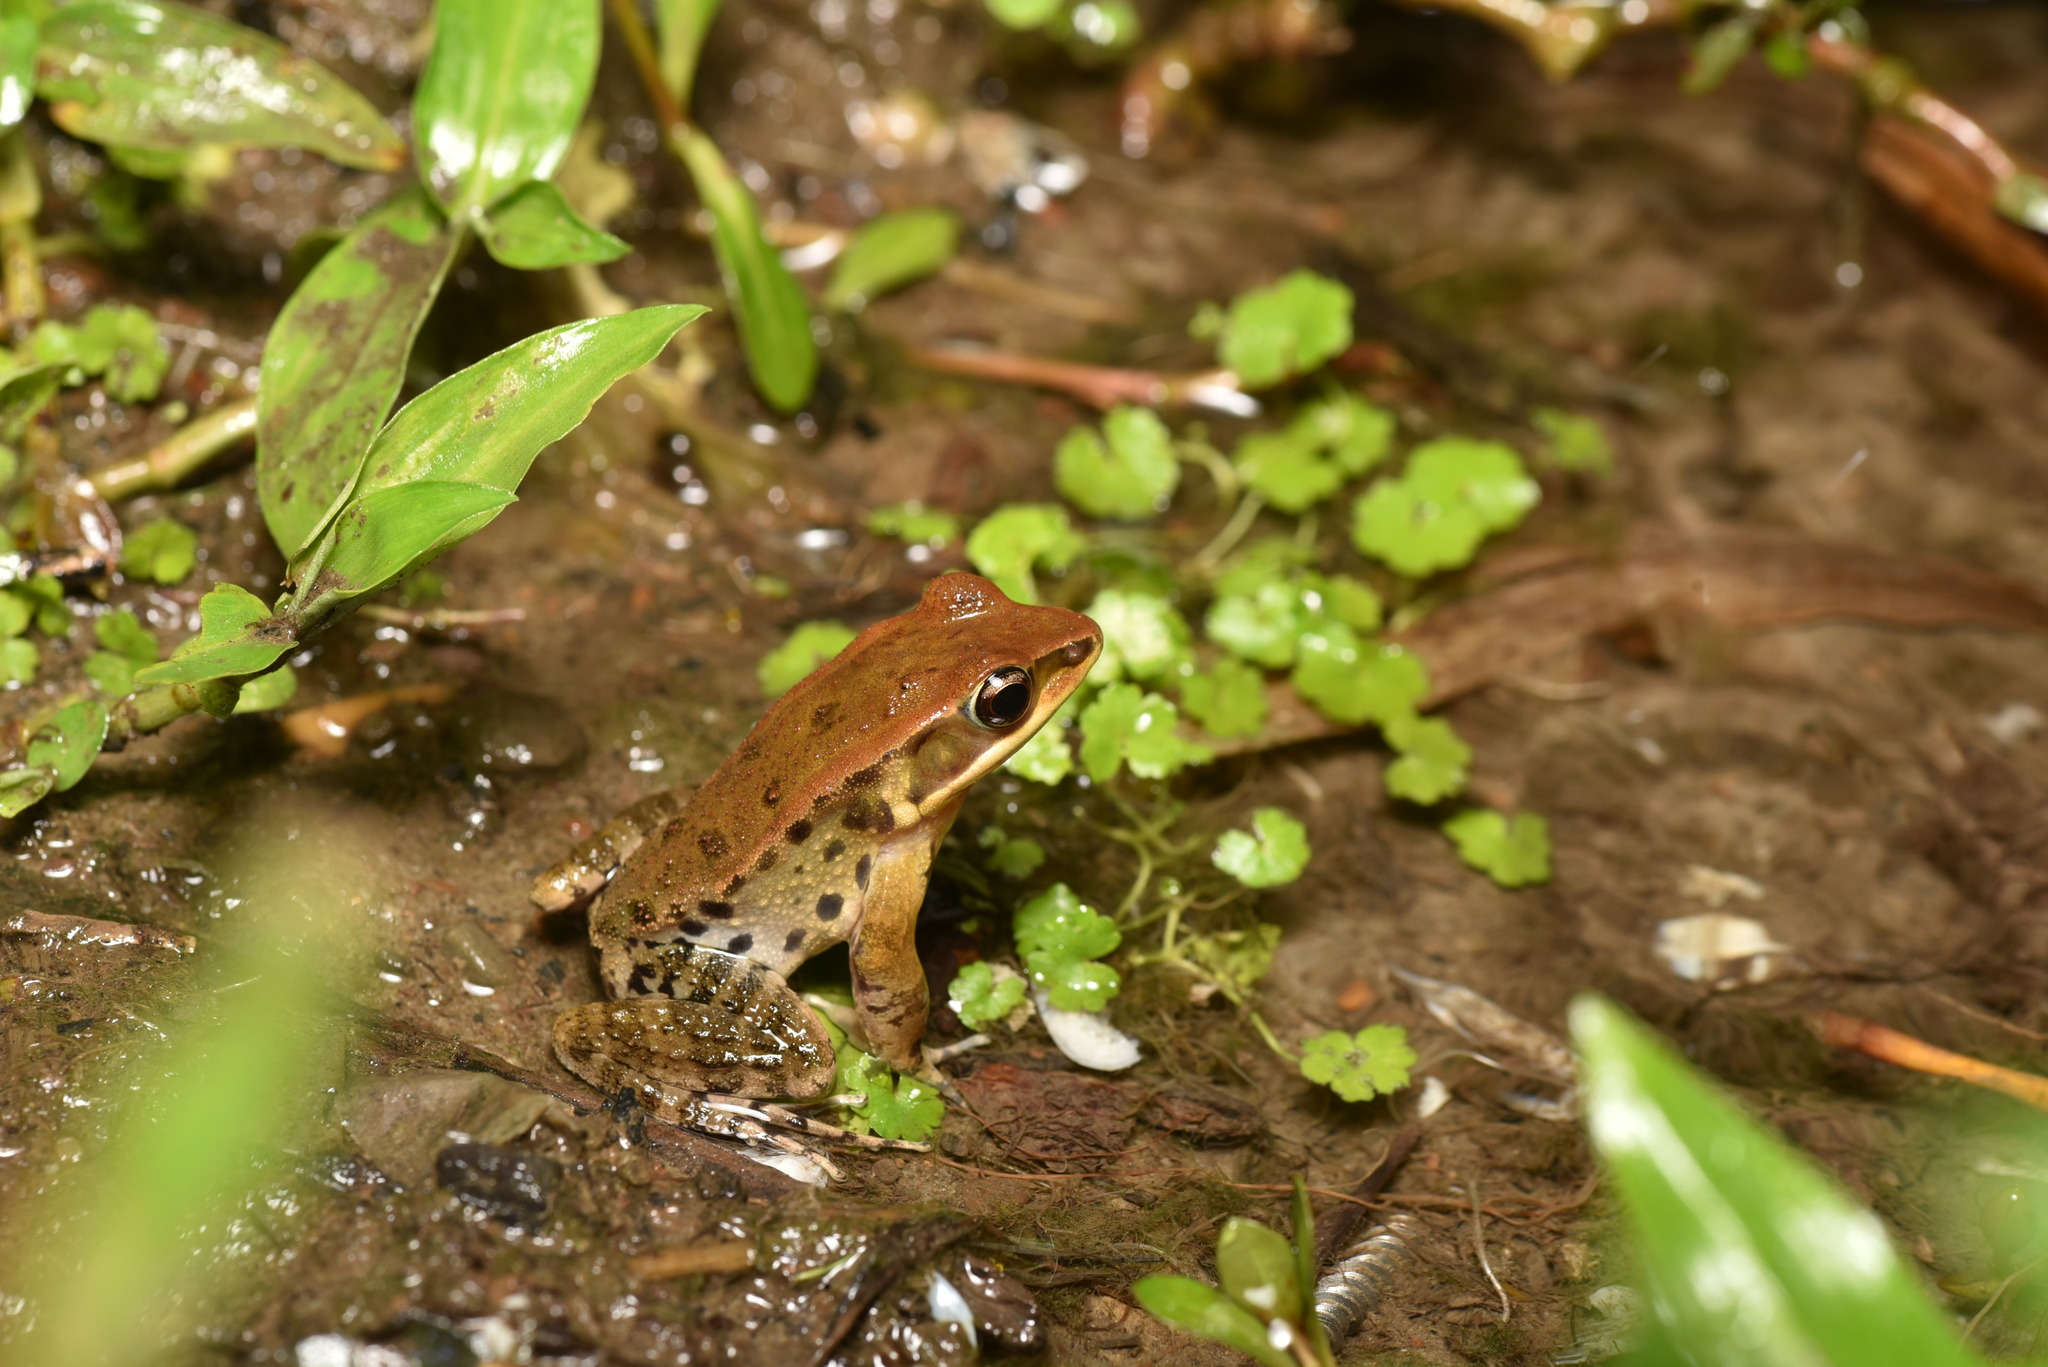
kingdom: Animalia
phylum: Chordata
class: Amphibia
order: Anura
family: Ranidae
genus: Hylarana
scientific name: Hylarana latouchii
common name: Broad-folded frog
